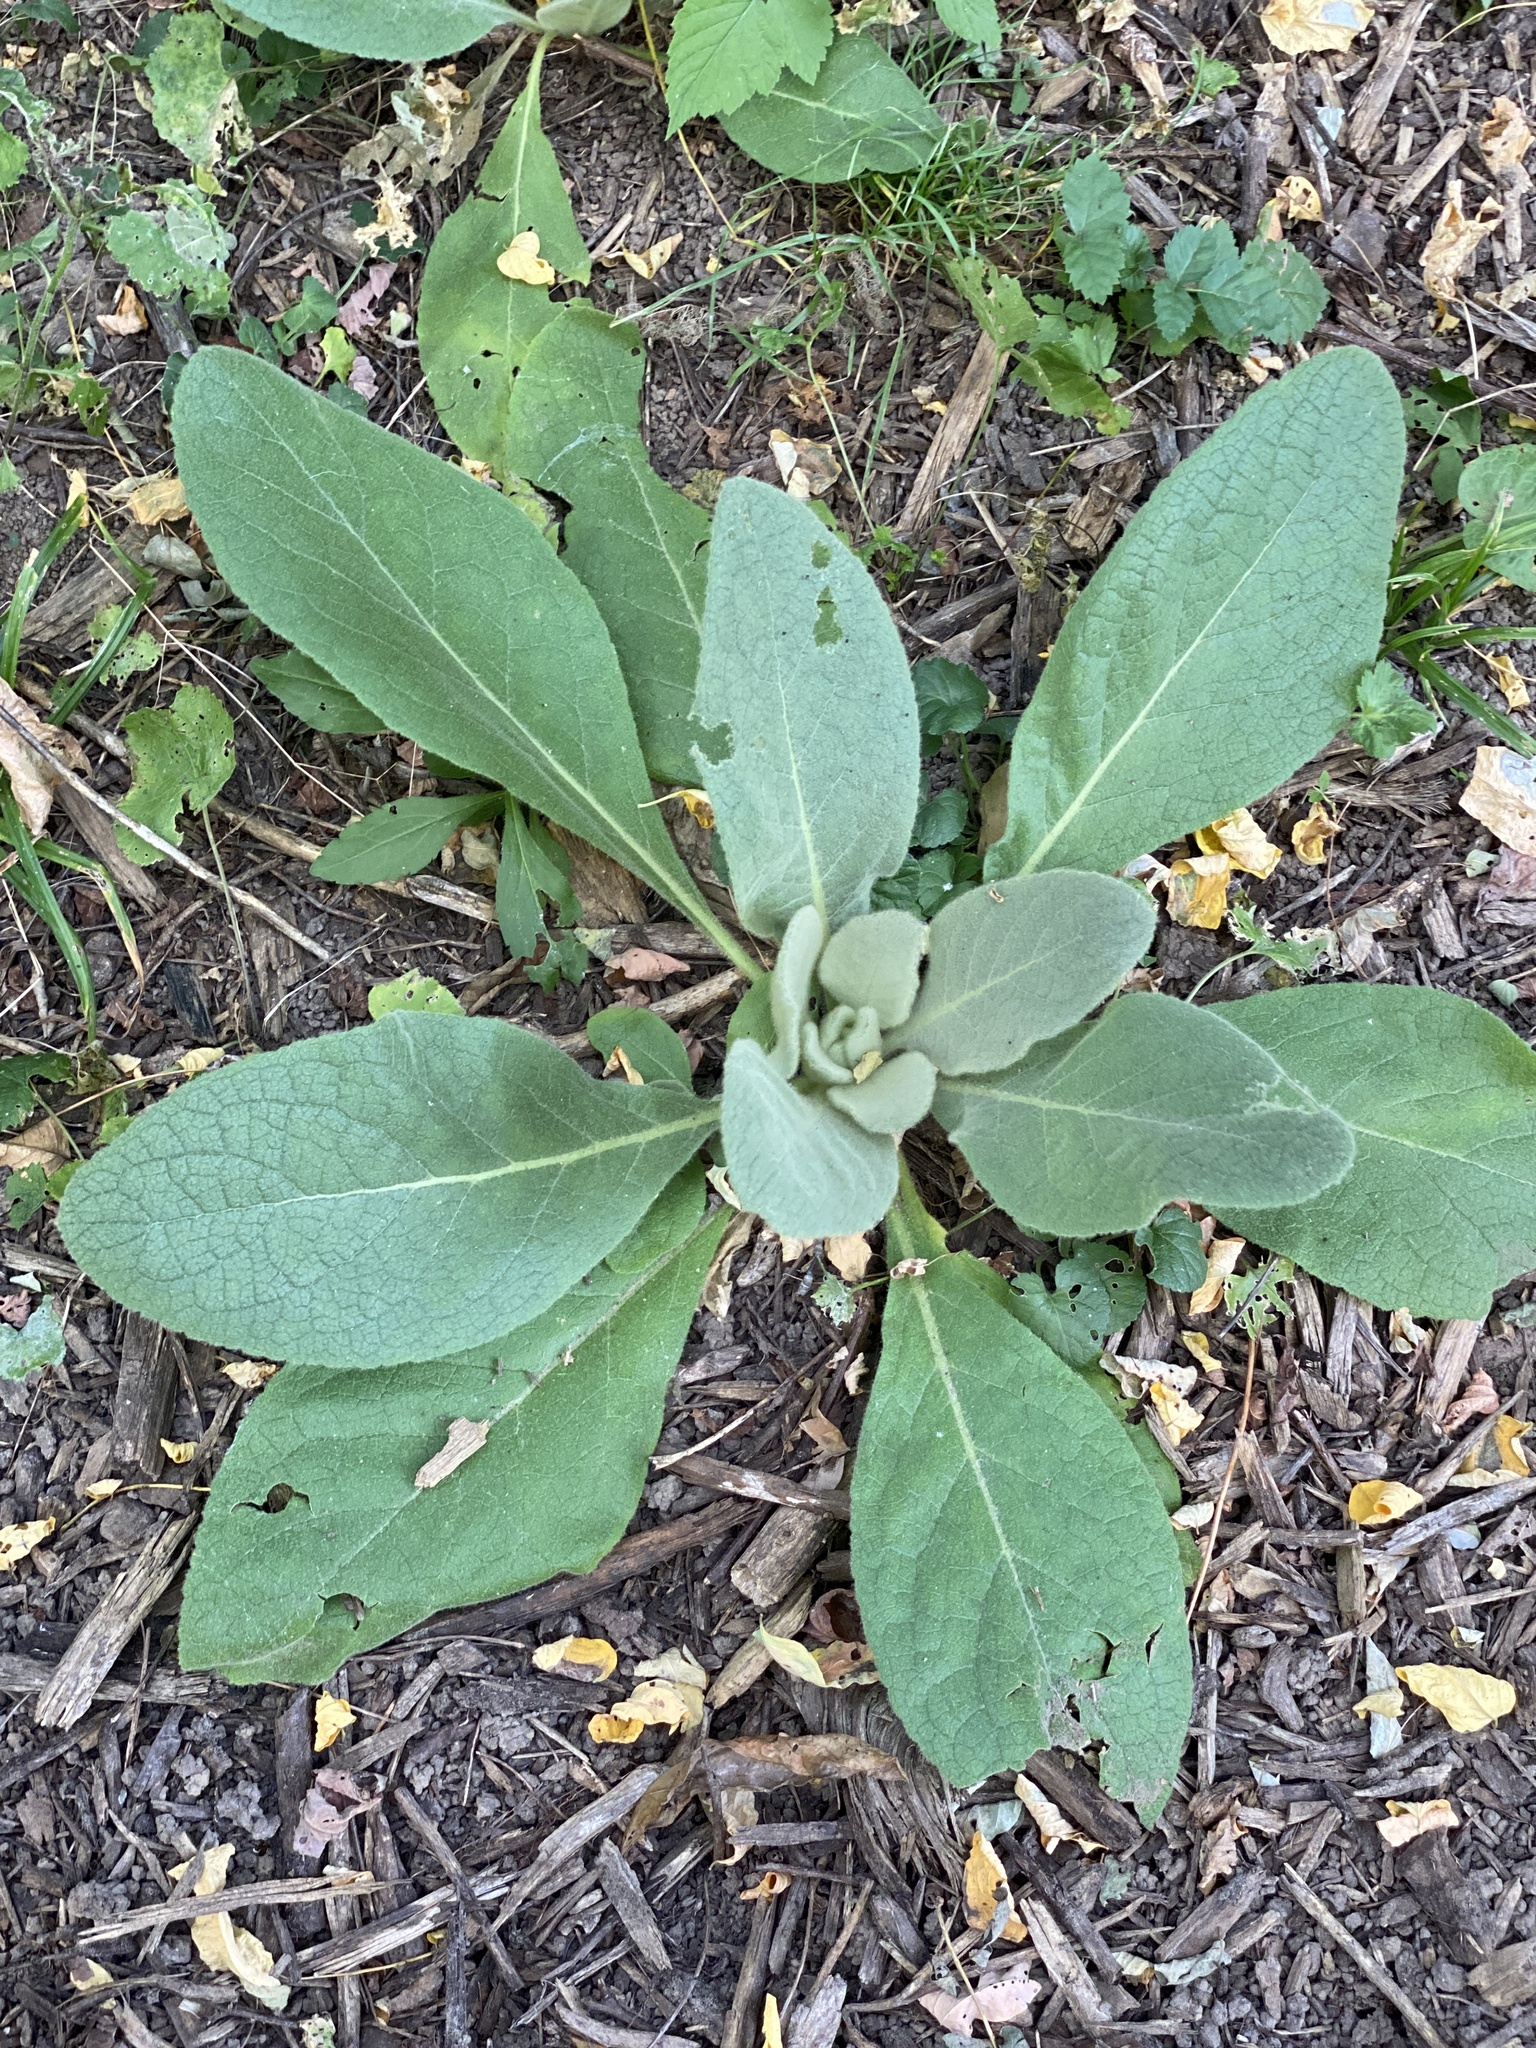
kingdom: Plantae
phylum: Tracheophyta
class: Magnoliopsida
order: Lamiales
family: Scrophulariaceae
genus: Verbascum
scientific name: Verbascum thapsus
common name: Common mullein
